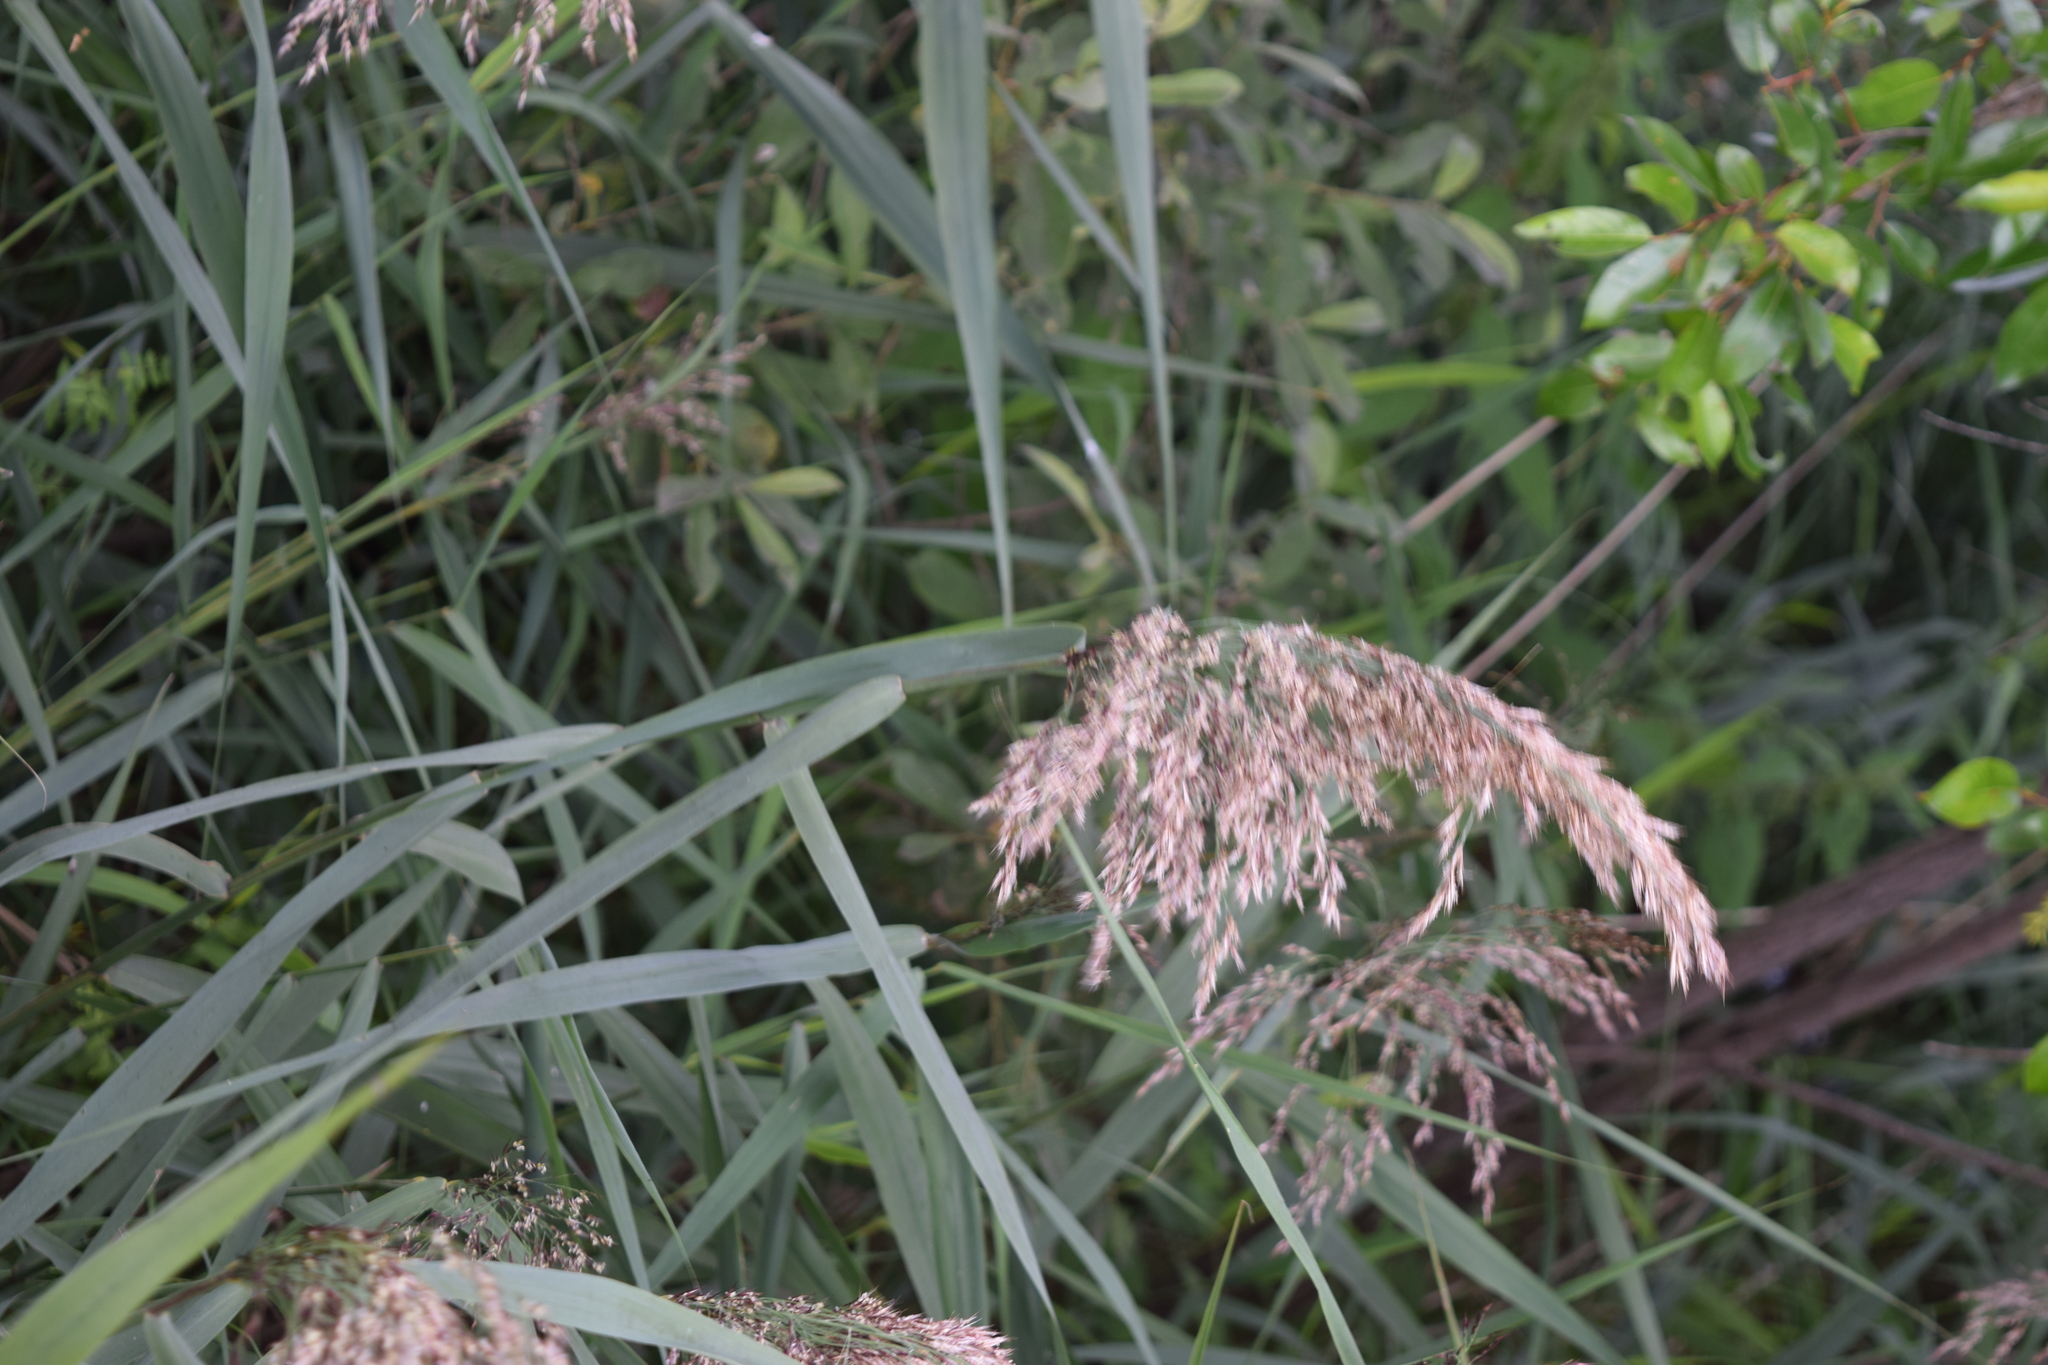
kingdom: Plantae
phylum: Tracheophyta
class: Liliopsida
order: Poales
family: Poaceae
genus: Phragmites
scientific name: Phragmites australis
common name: Common reed
